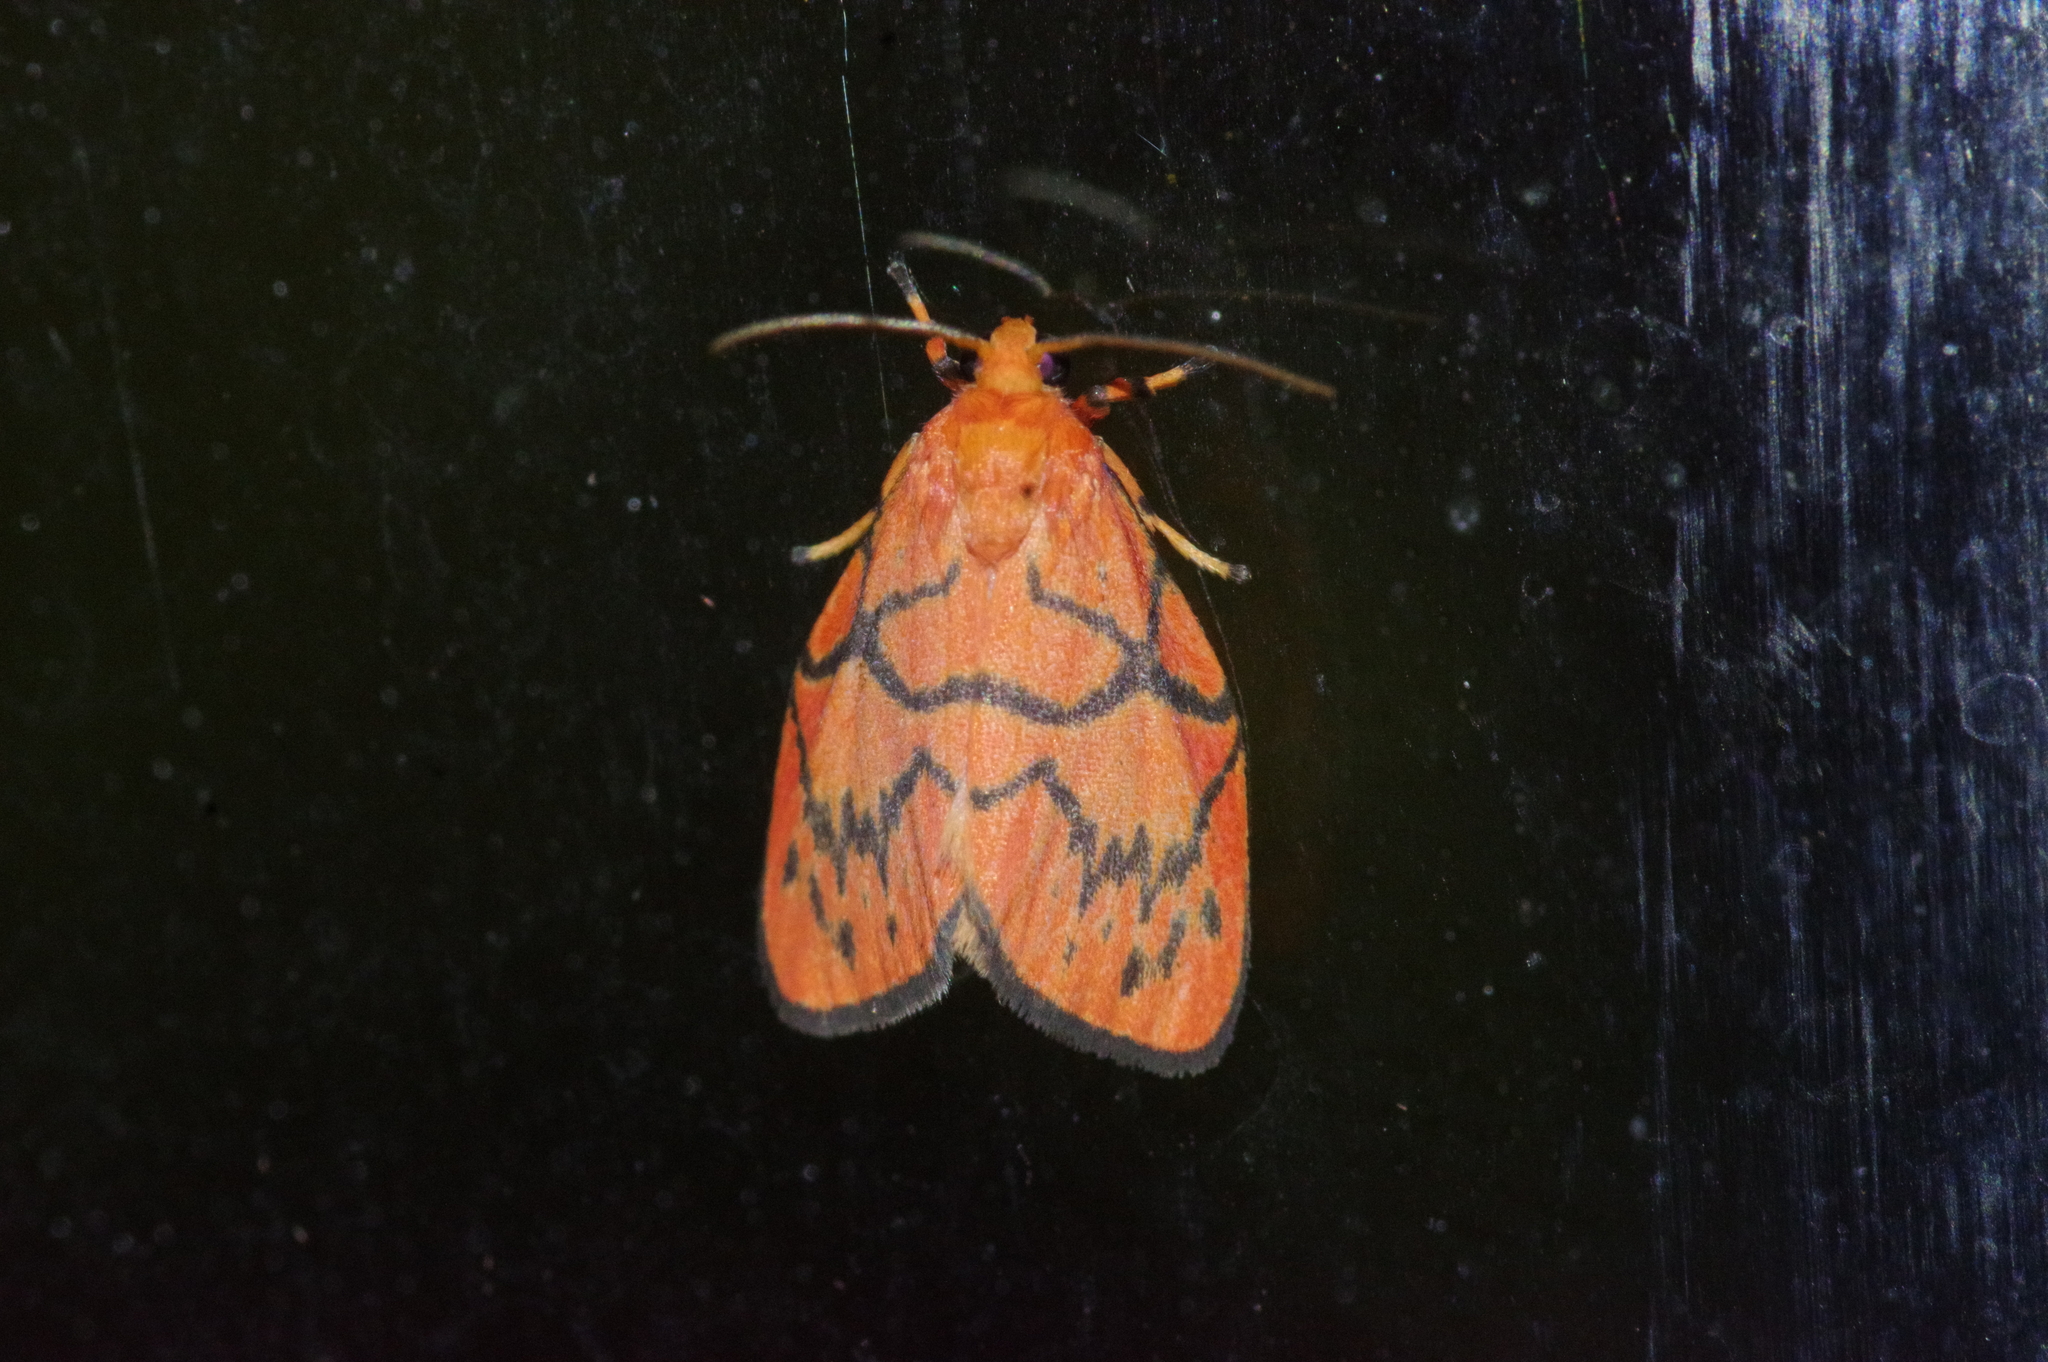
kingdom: Animalia
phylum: Arthropoda
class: Insecta
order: Lepidoptera
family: Erebidae
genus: Aberrasine
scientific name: Aberrasine aberrans
